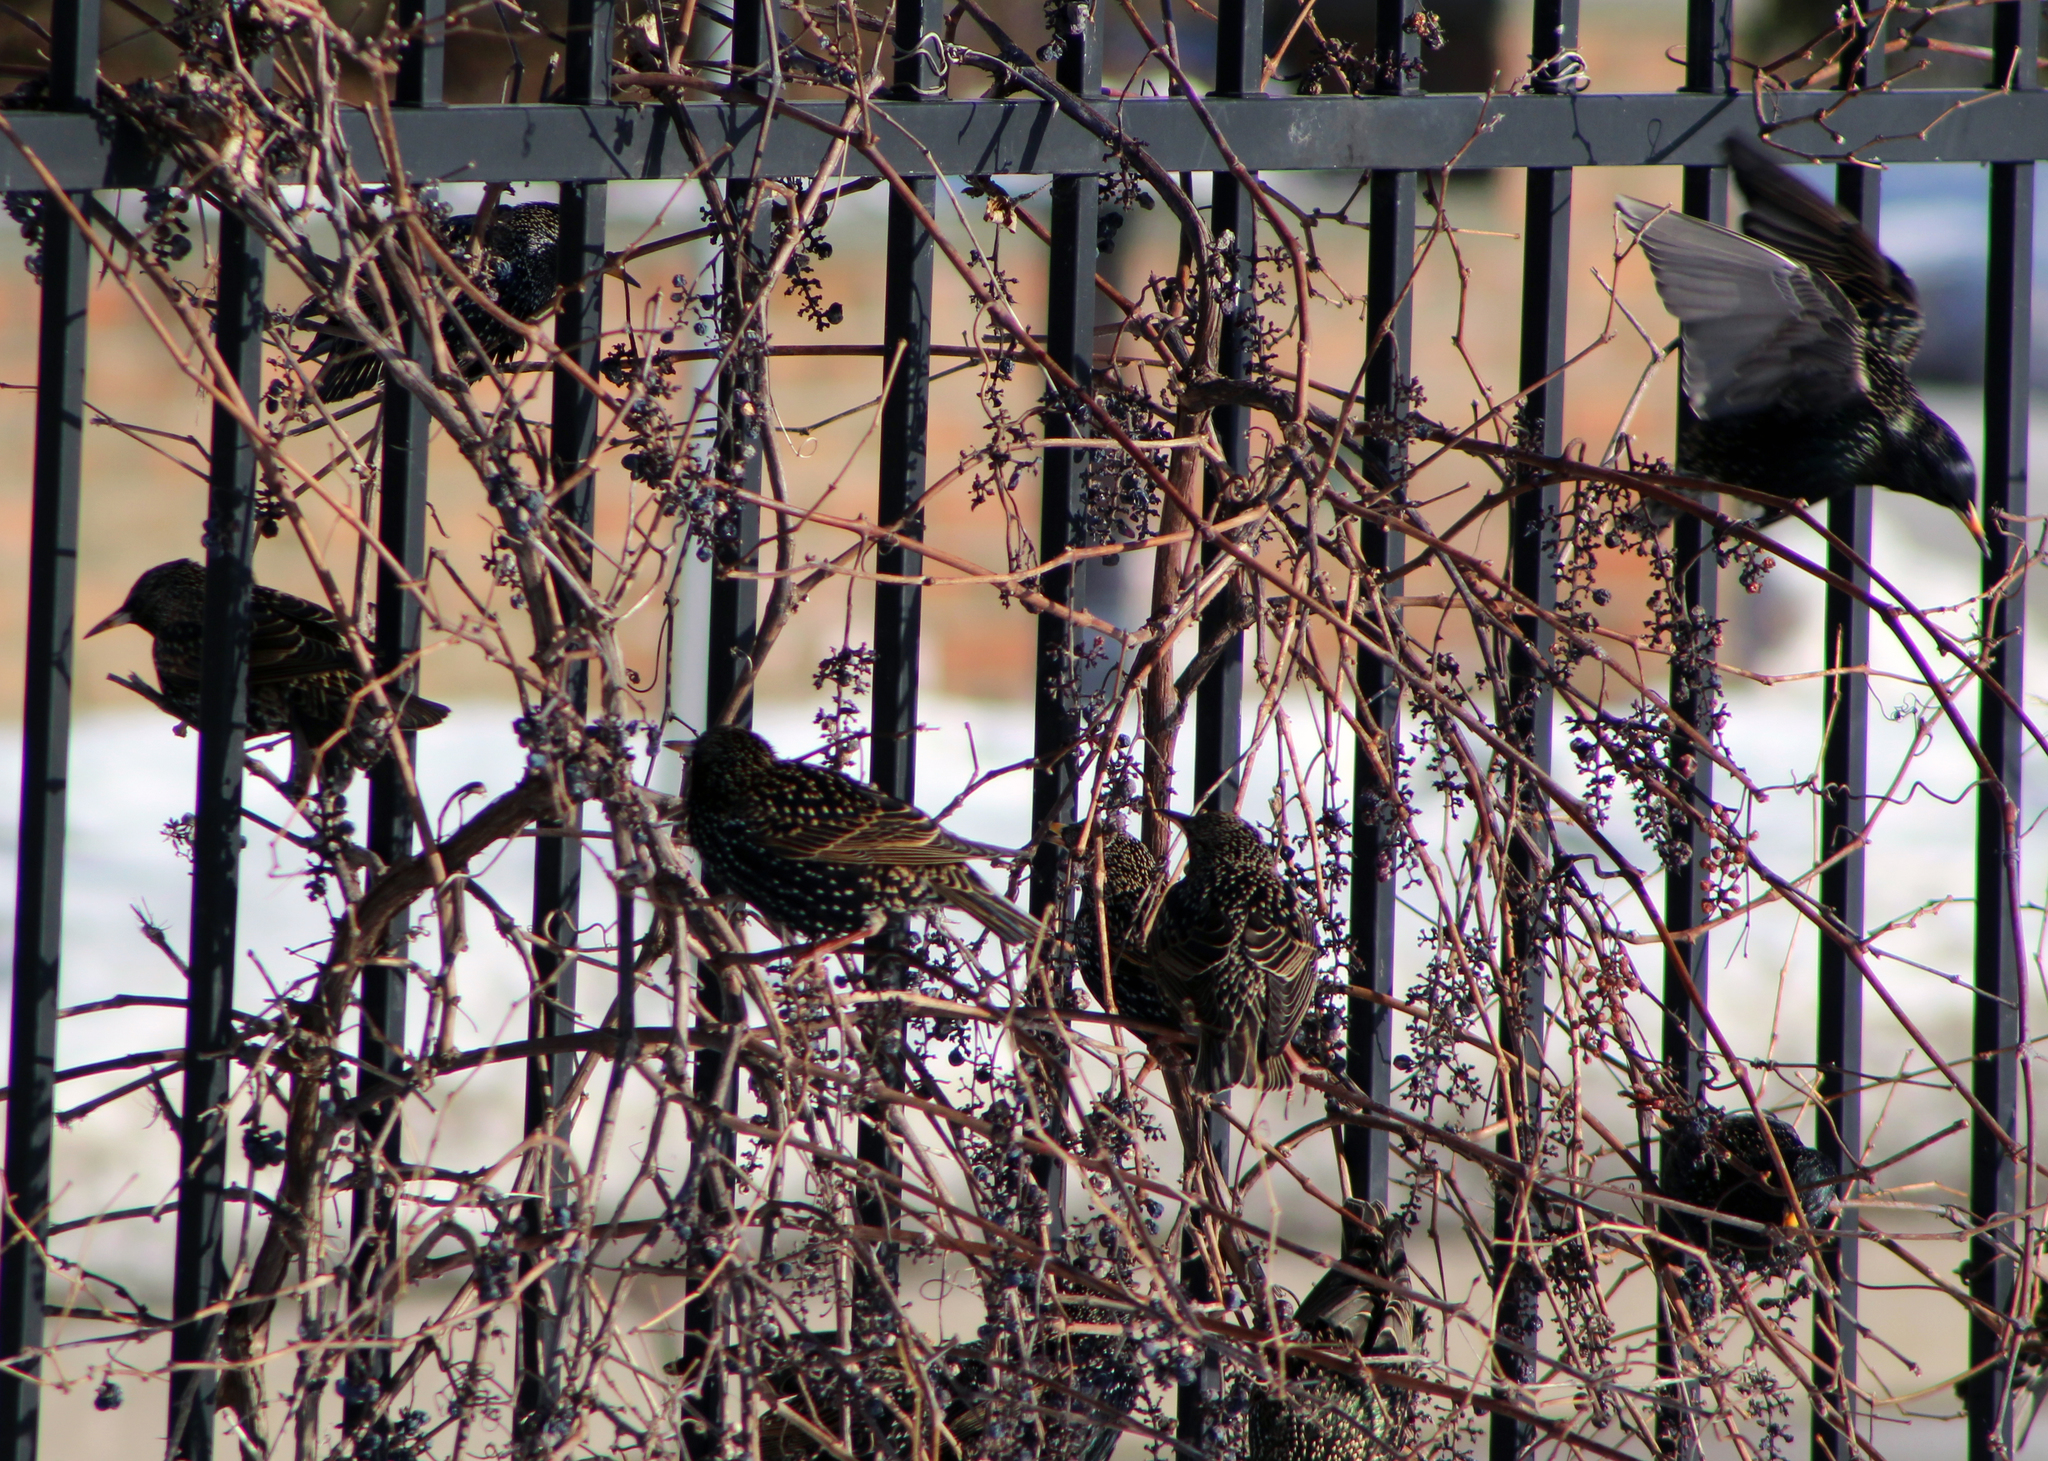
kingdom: Animalia
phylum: Chordata
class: Aves
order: Passeriformes
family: Sturnidae
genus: Sturnus
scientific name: Sturnus vulgaris
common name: Common starling
